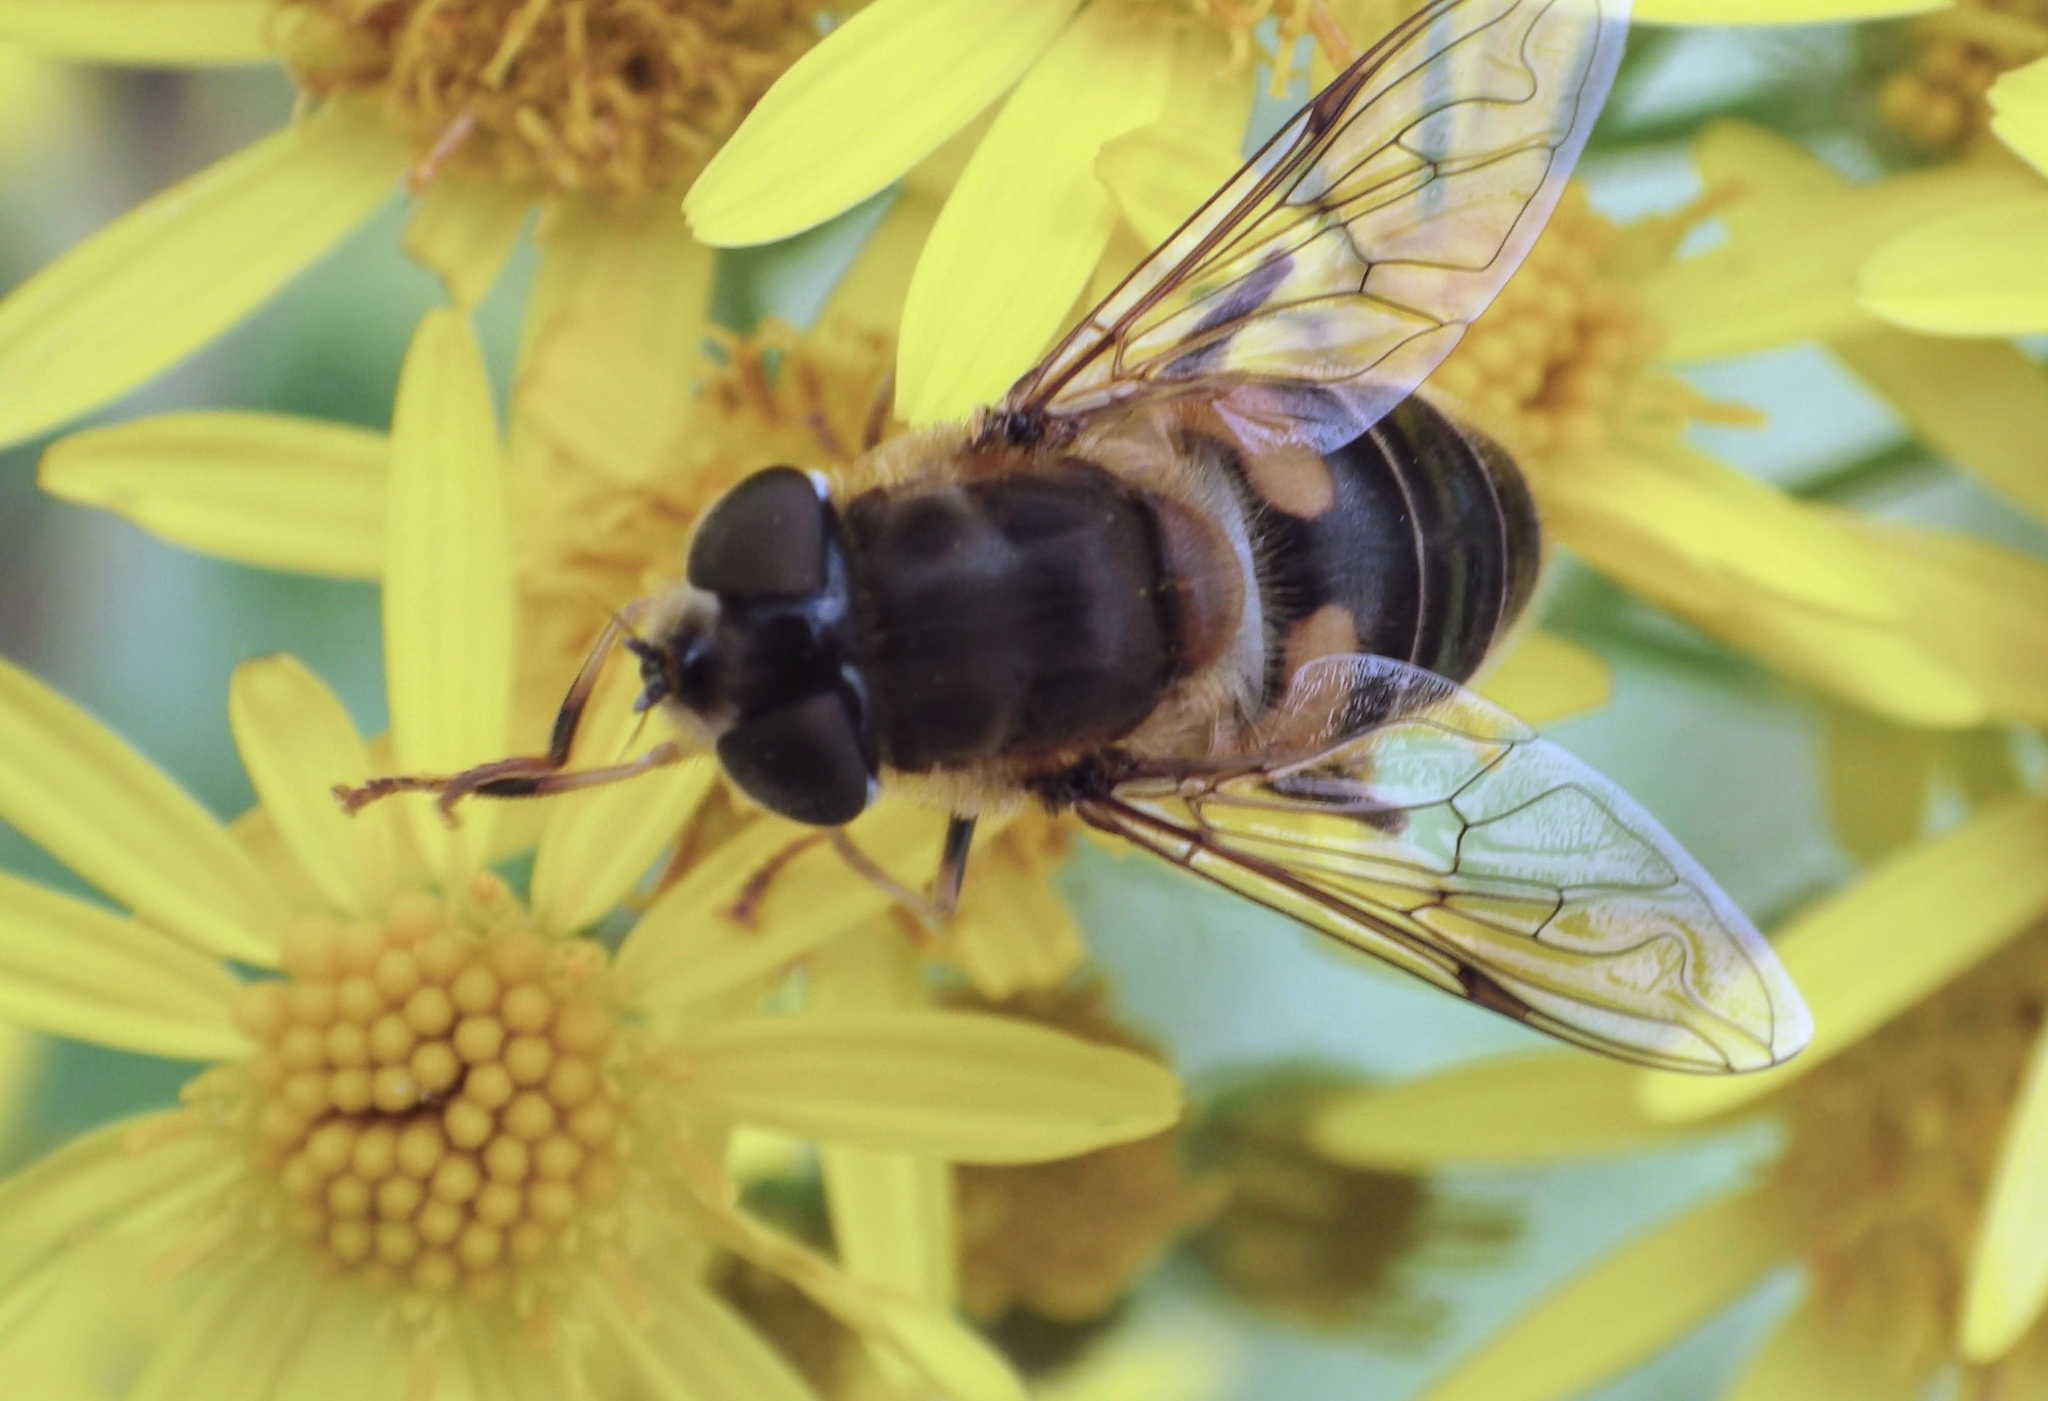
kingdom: Animalia
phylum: Arthropoda
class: Insecta
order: Diptera
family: Syrphidae
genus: Eristalis
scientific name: Eristalis pertinax
